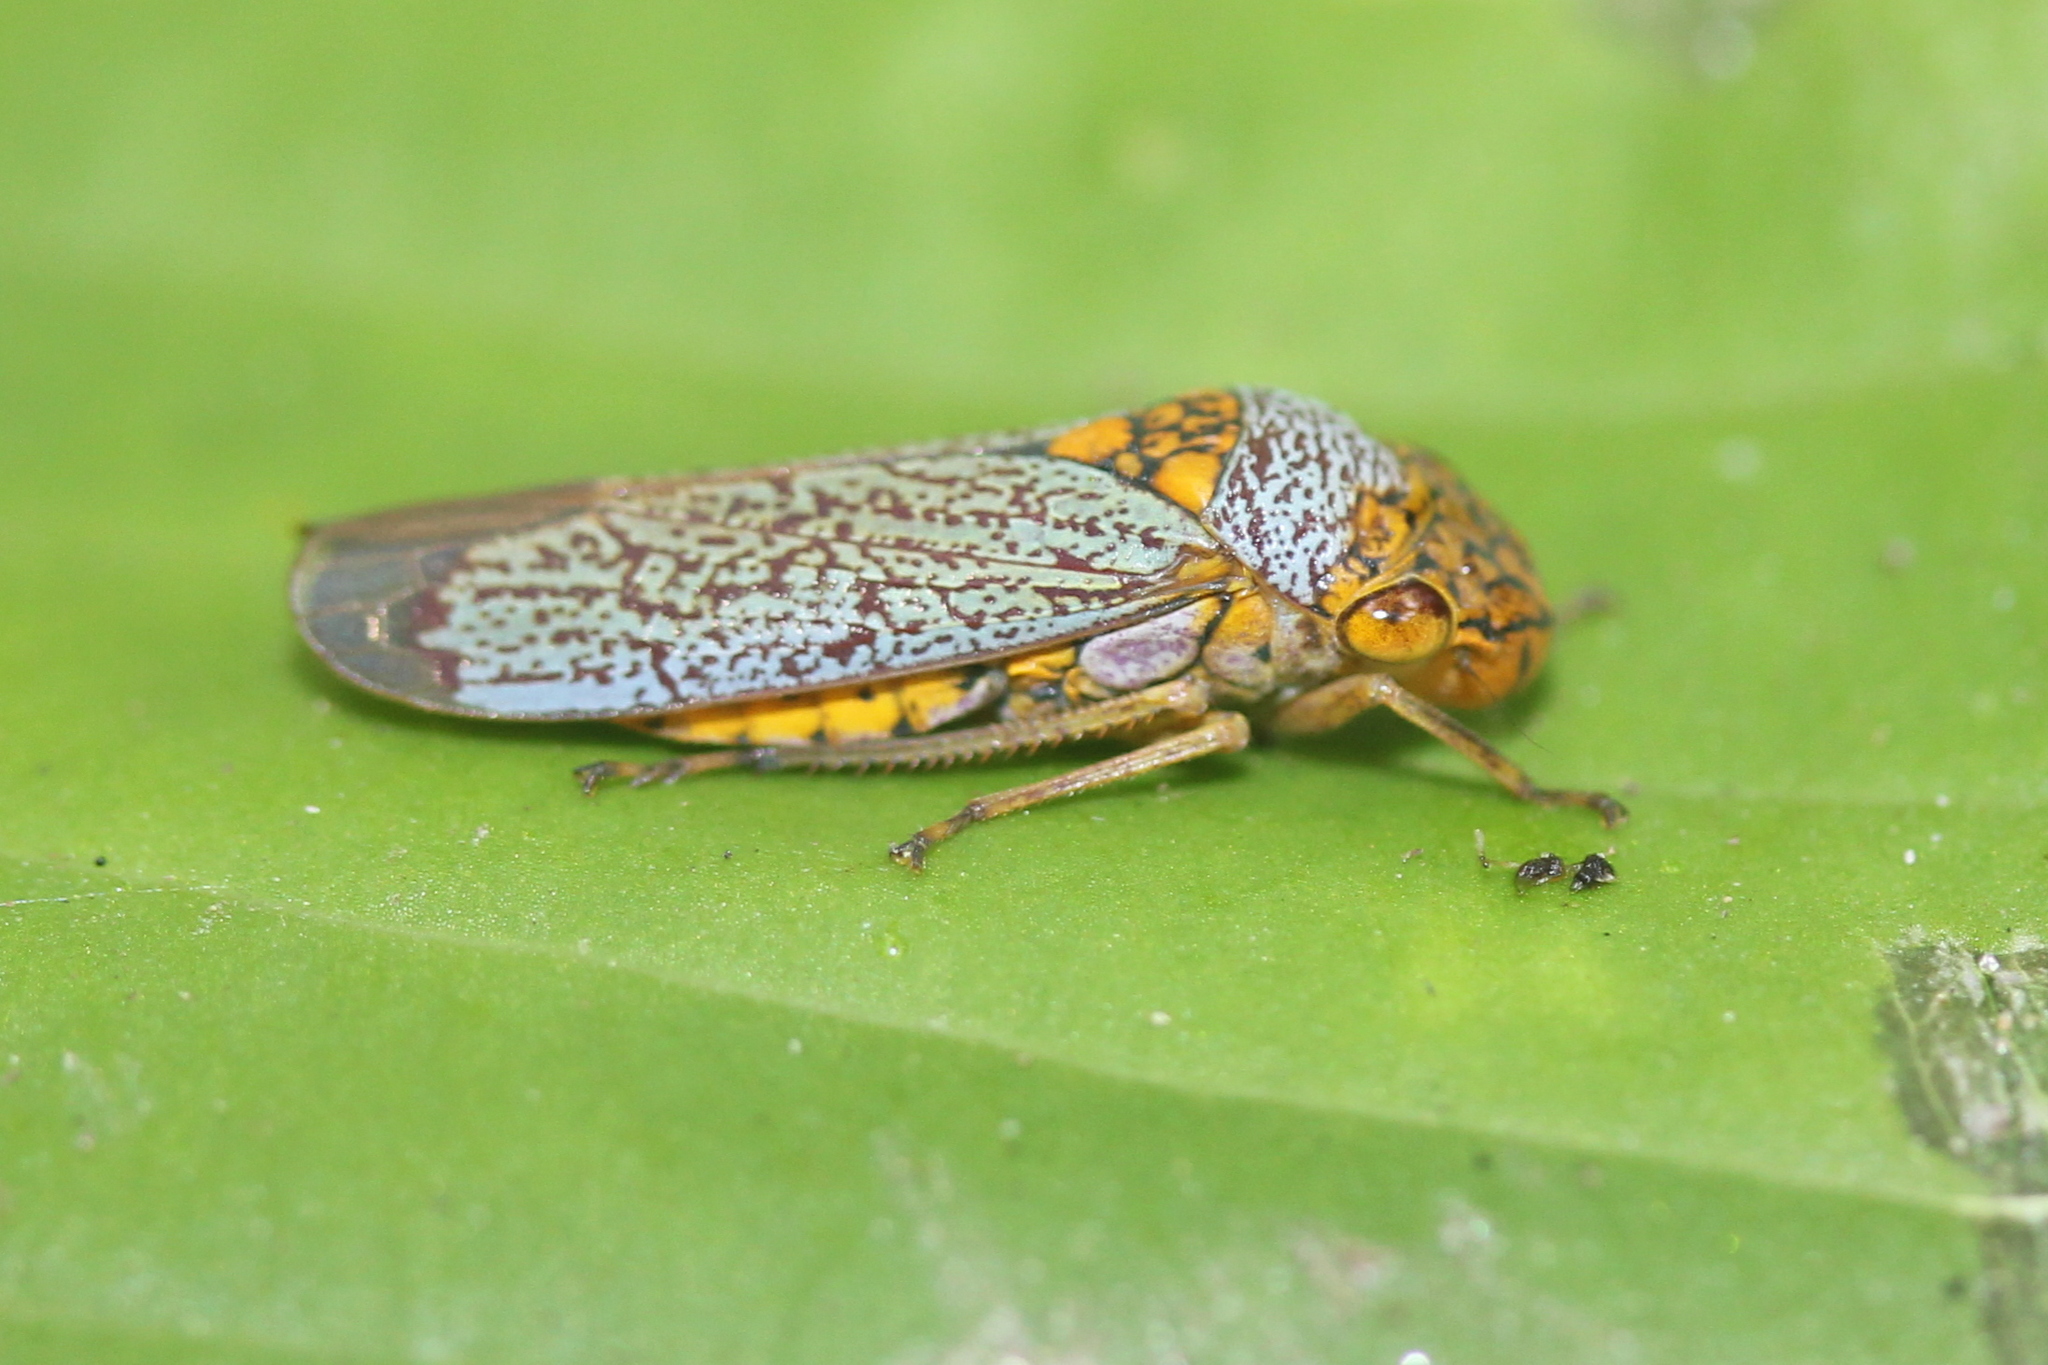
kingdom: Animalia
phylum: Arthropoda
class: Insecta
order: Hemiptera
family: Cicadellidae
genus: Oncometopia
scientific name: Oncometopia orbona
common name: Broad-headed sharpshooter
